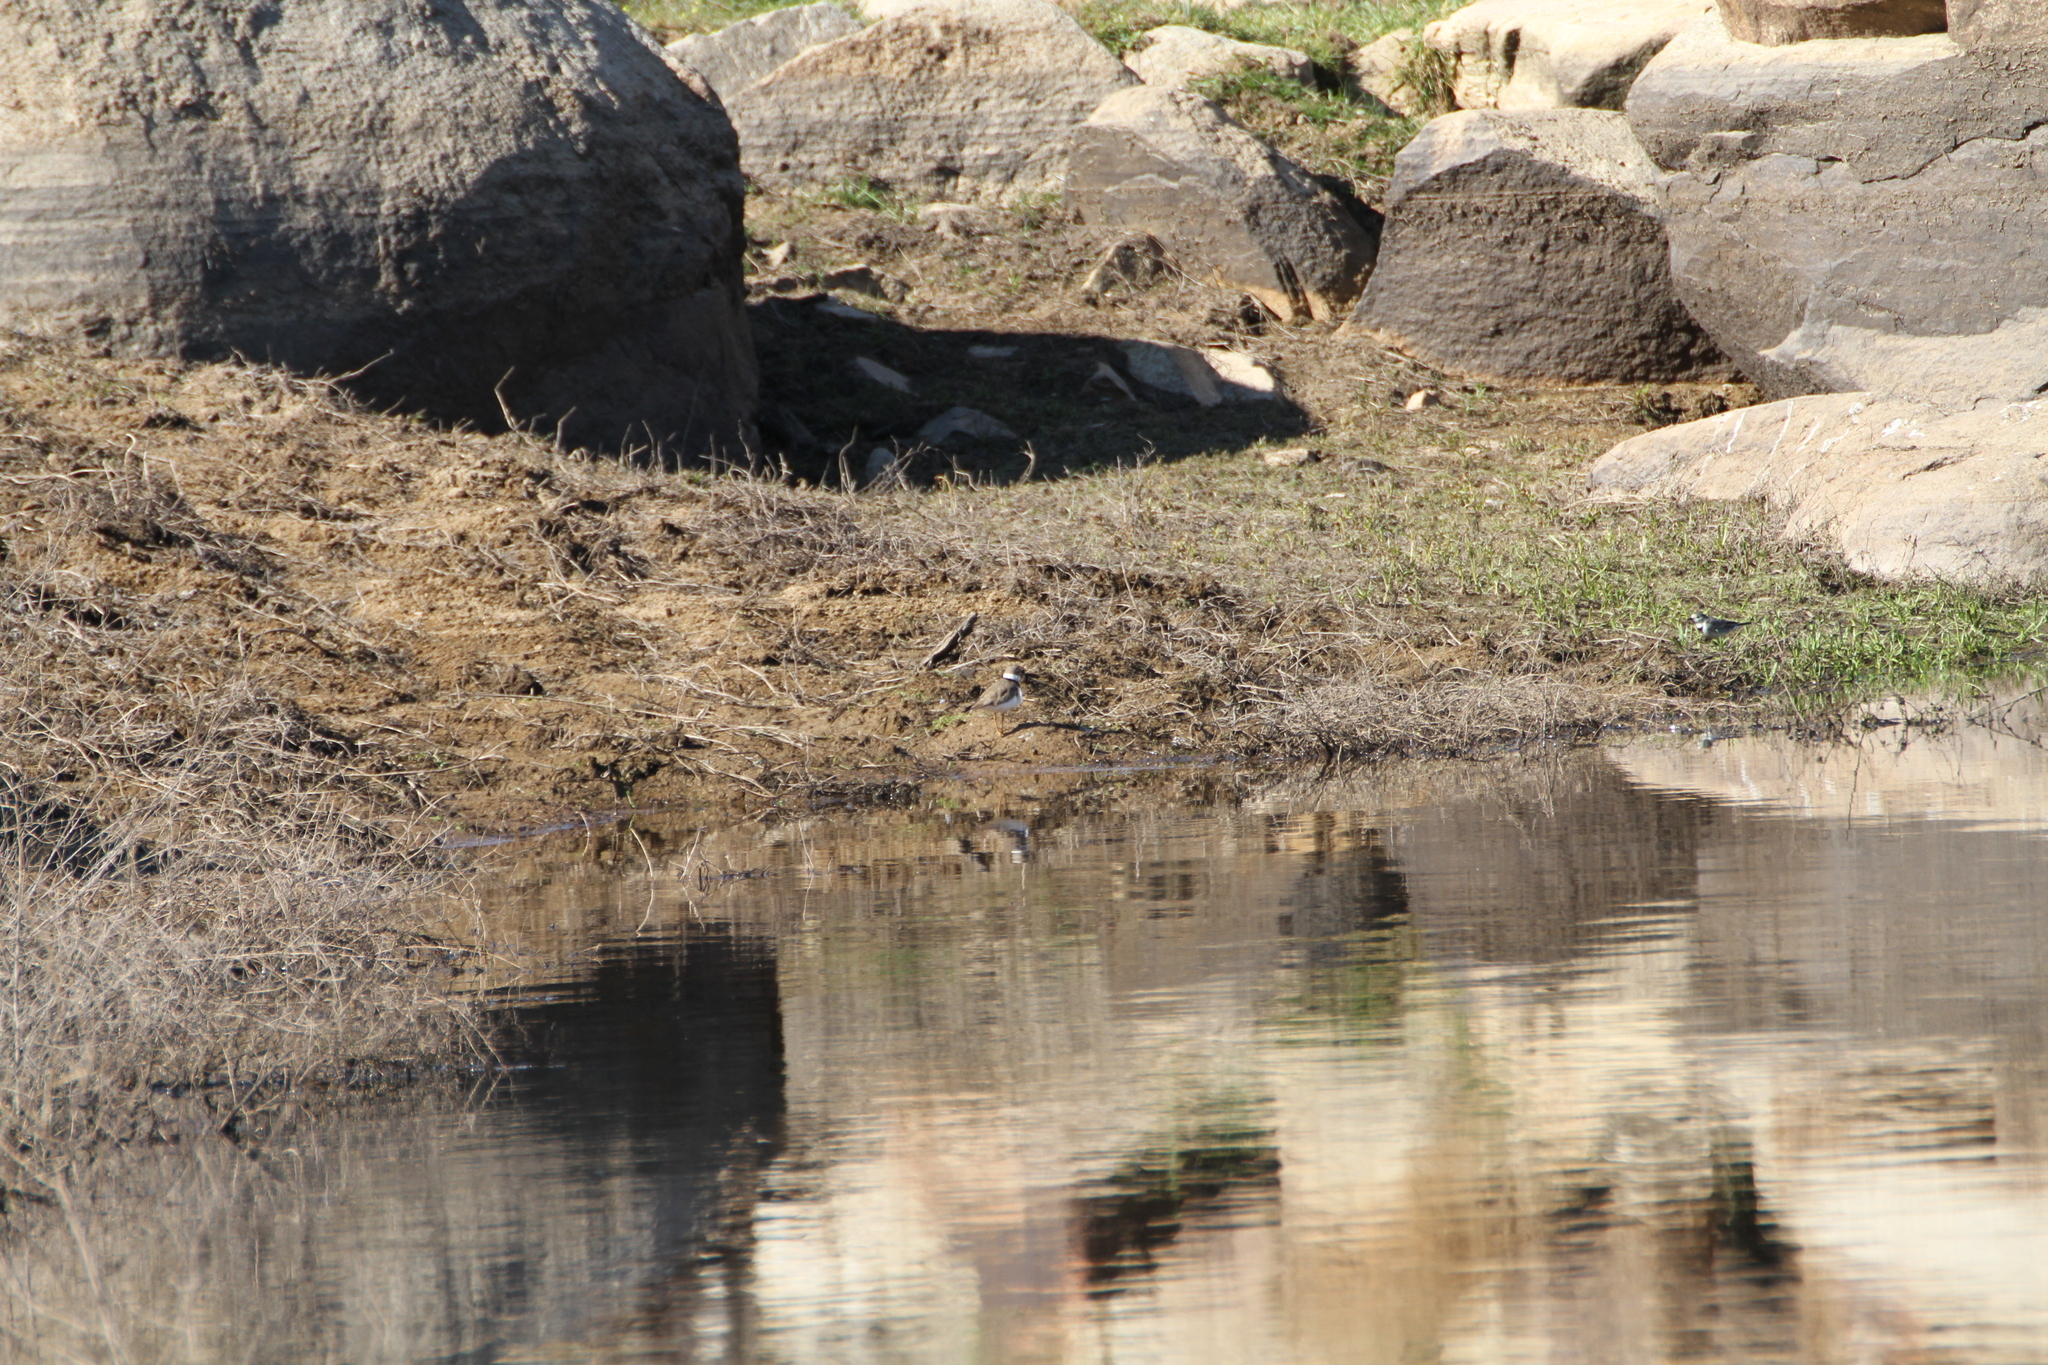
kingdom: Animalia
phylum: Chordata
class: Aves
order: Charadriiformes
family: Charadriidae
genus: Charadrius
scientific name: Charadrius dubius
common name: Little ringed plover
